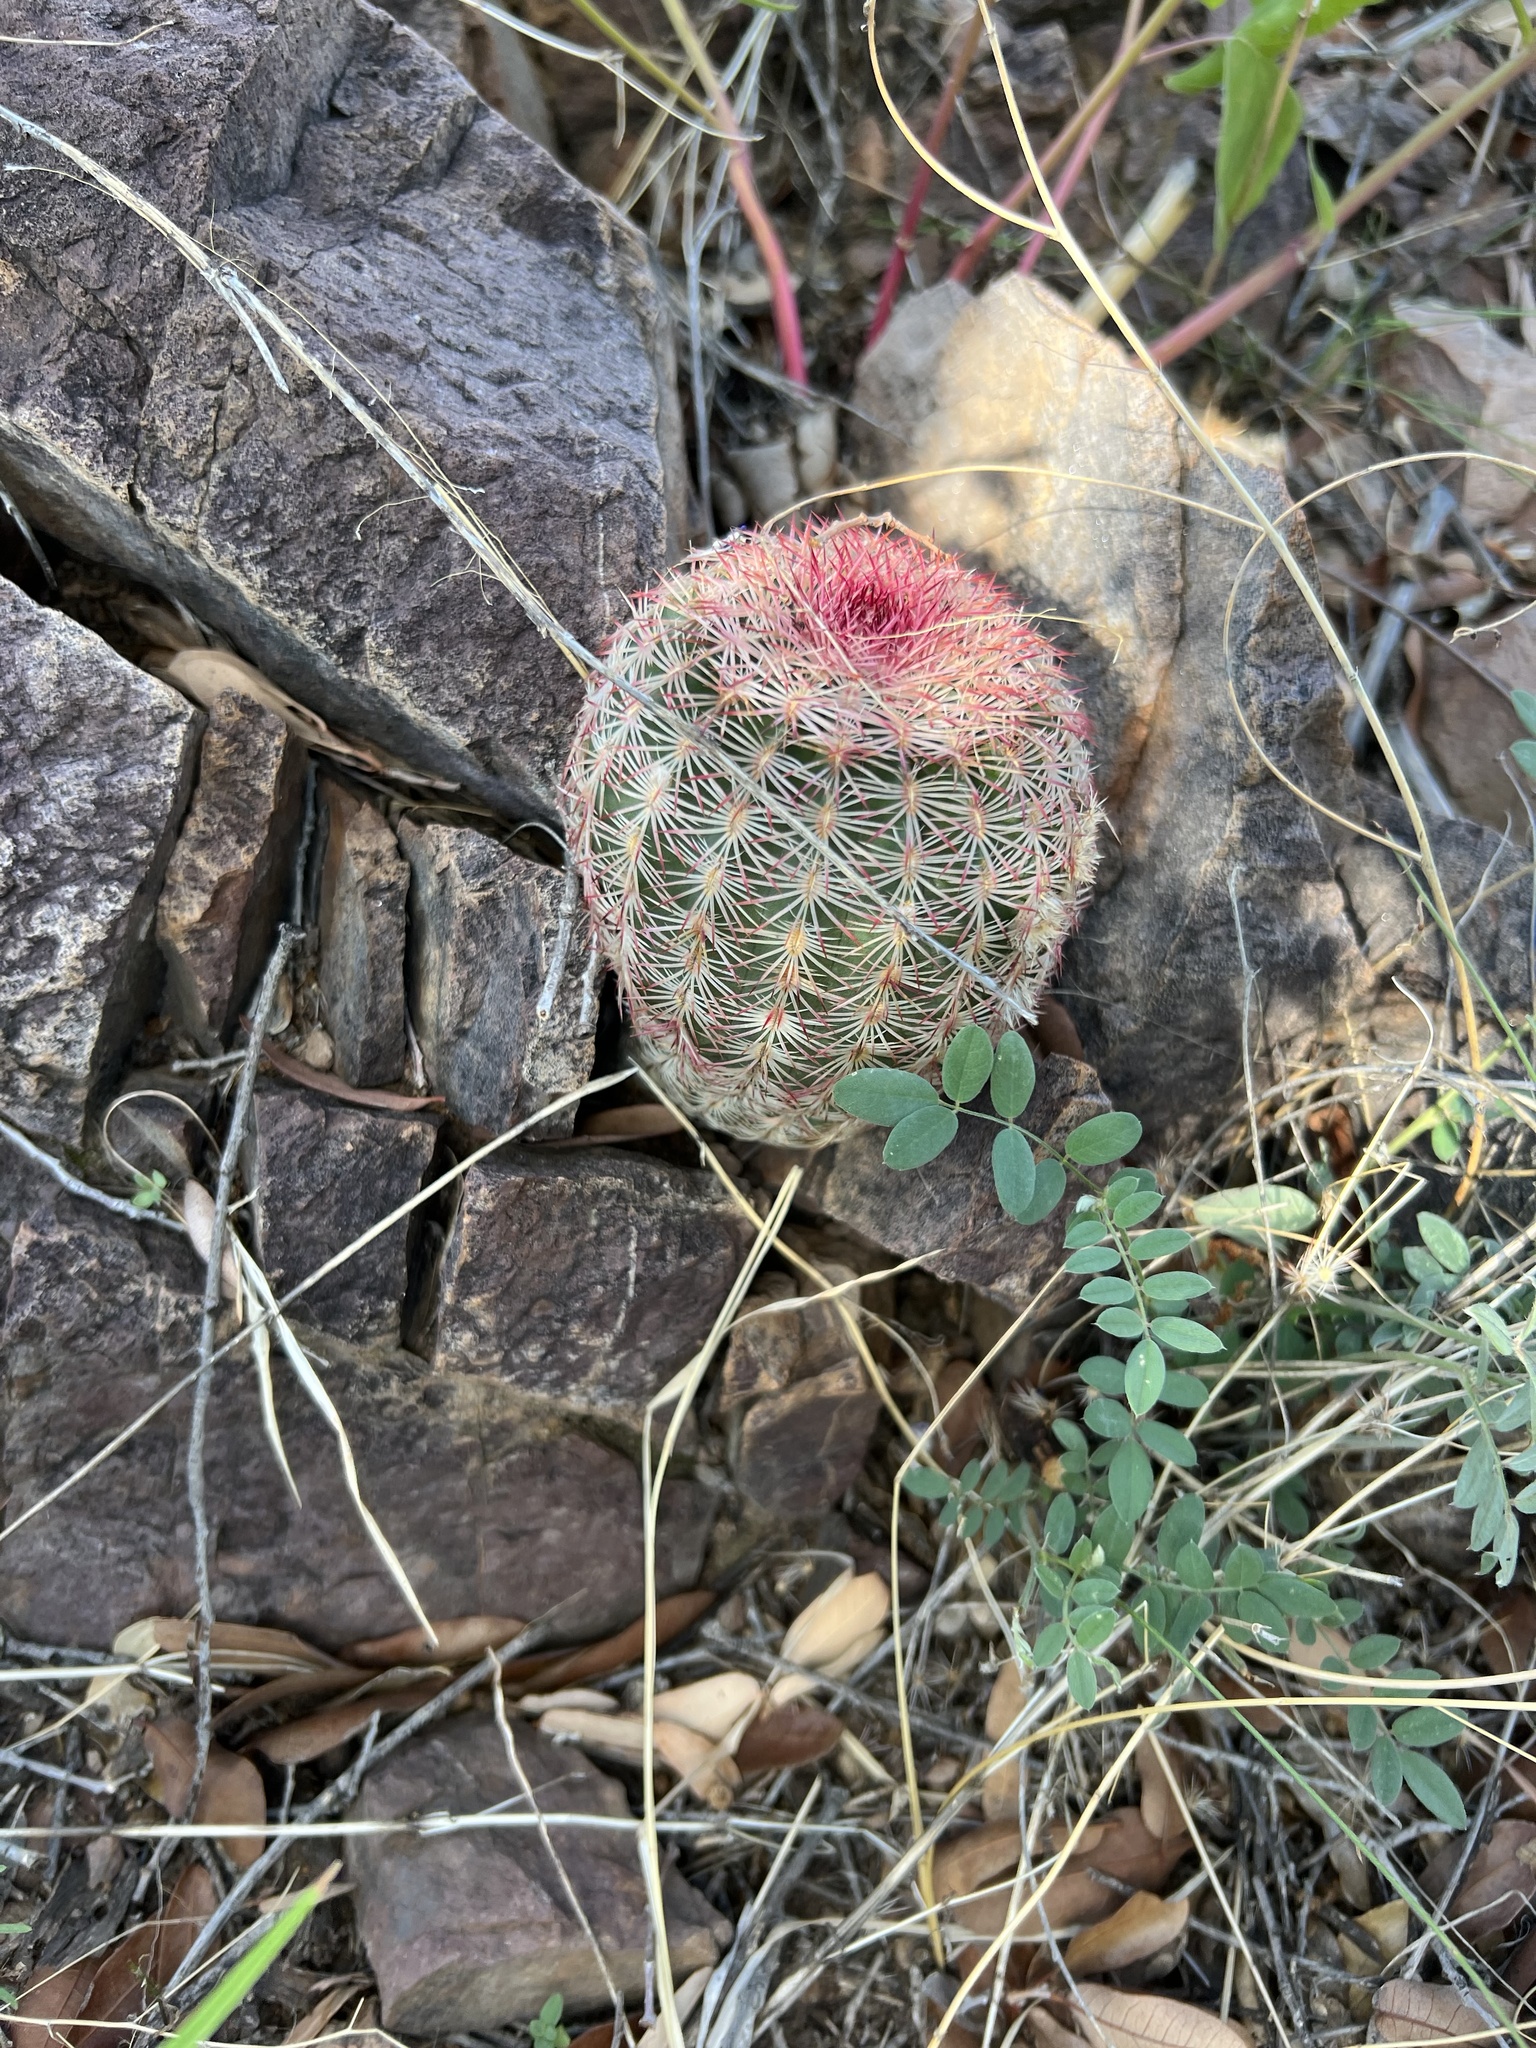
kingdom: Plantae
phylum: Tracheophyta
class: Magnoliopsida
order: Caryophyllales
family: Cactaceae
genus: Echinocereus
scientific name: Echinocereus rigidissimus
